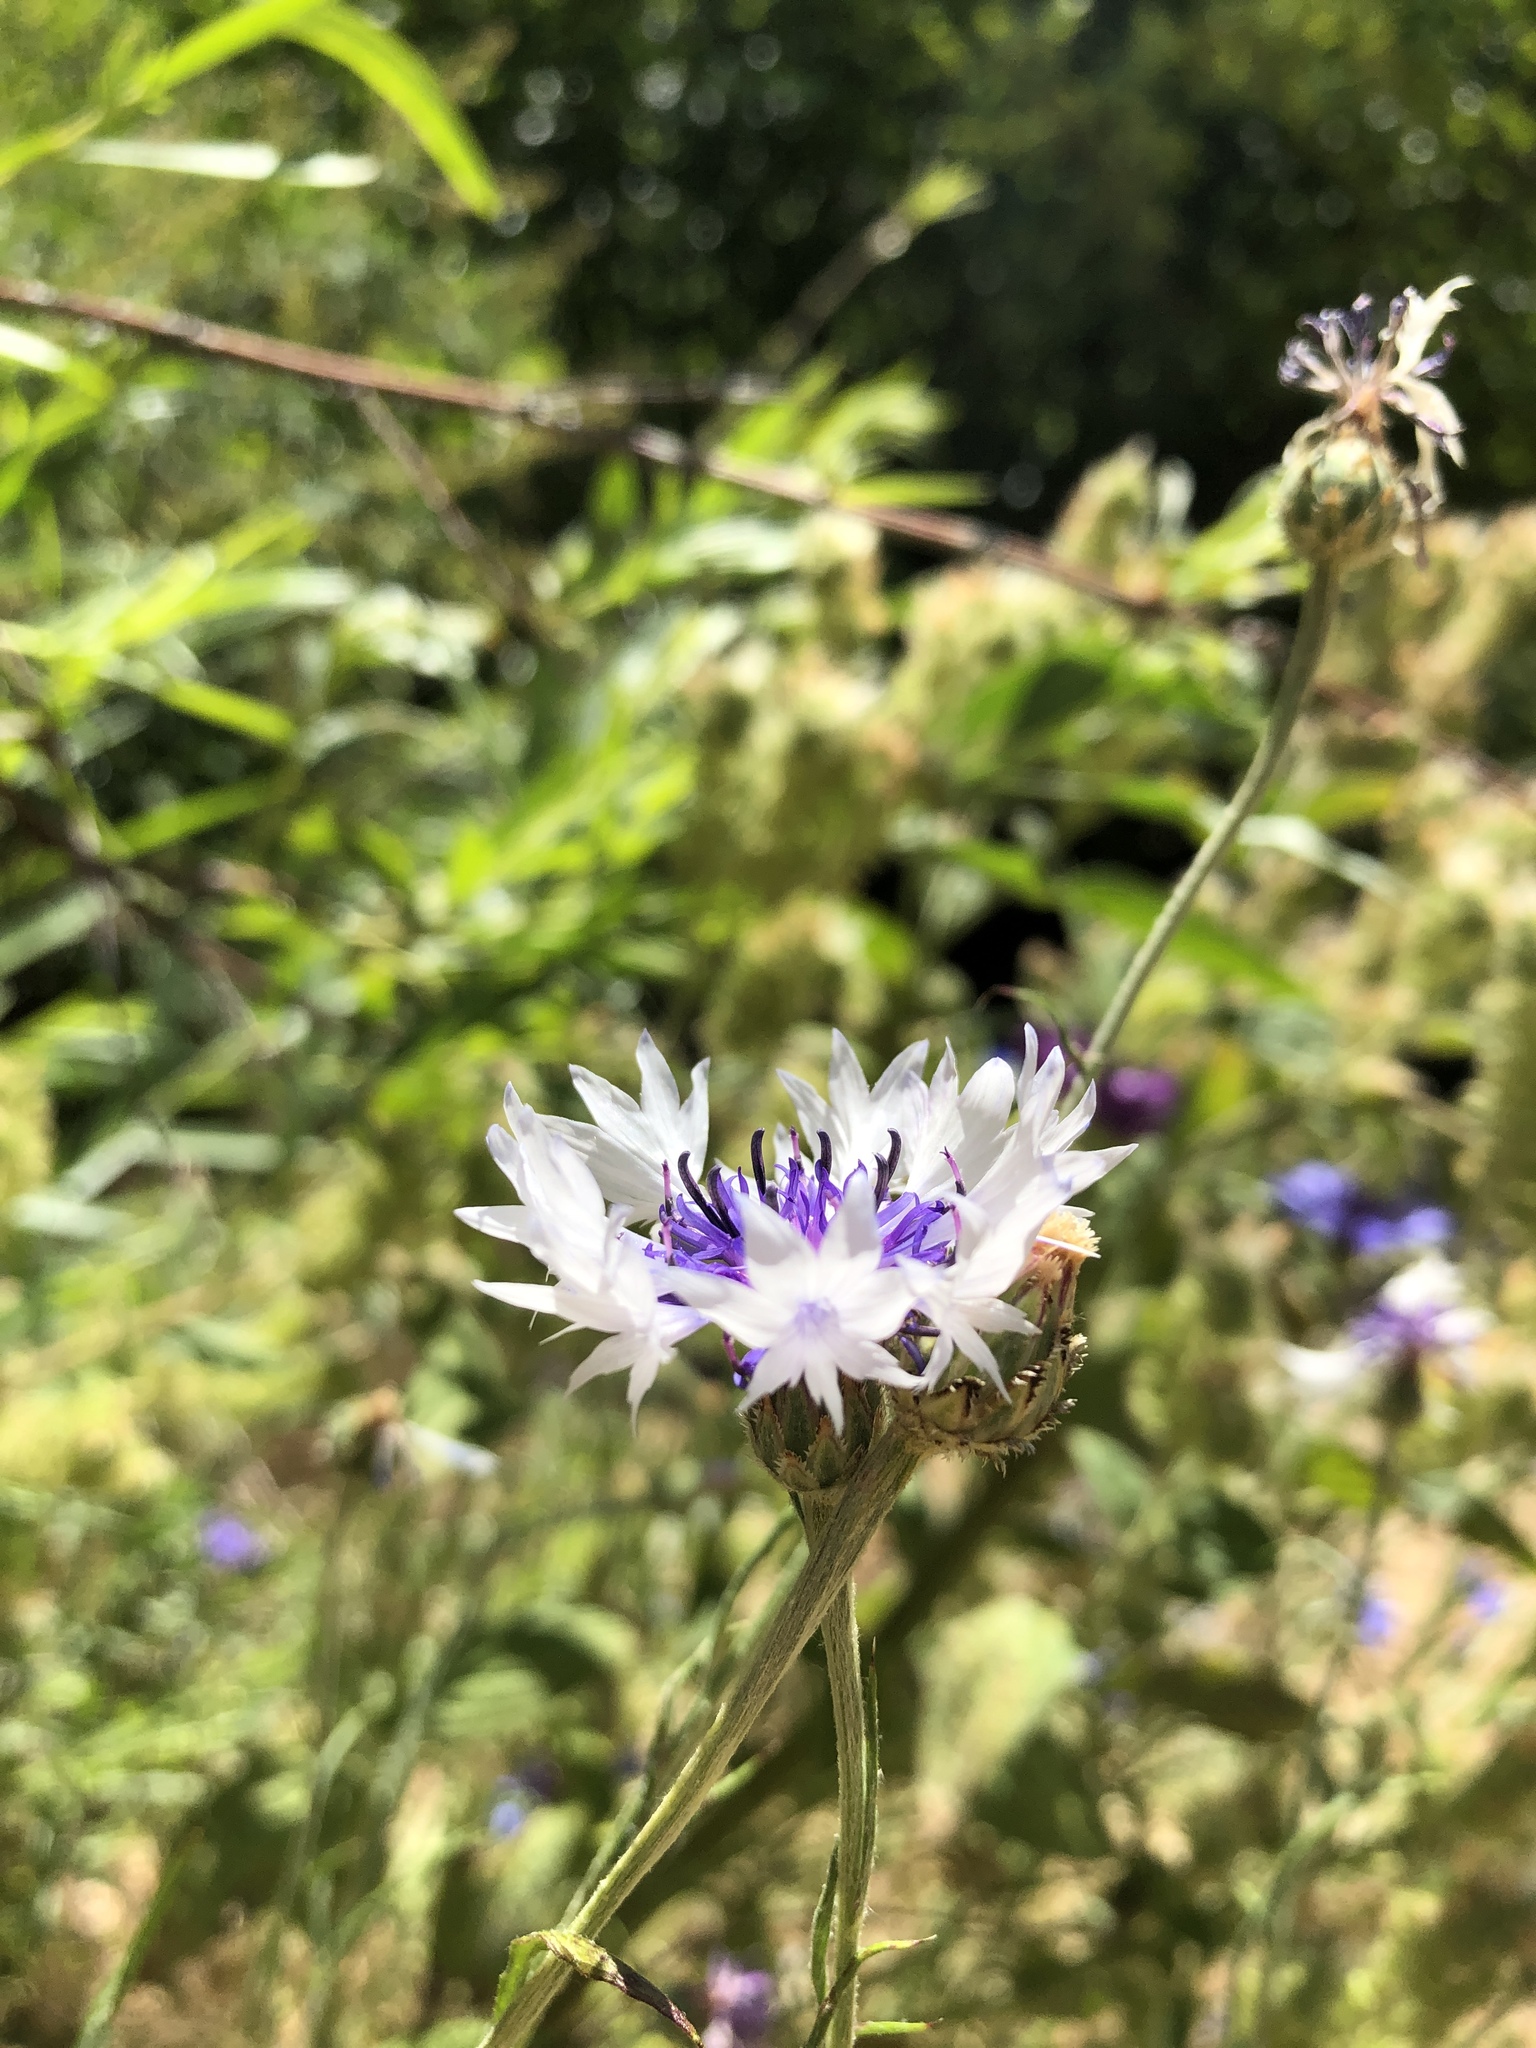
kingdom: Plantae
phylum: Tracheophyta
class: Magnoliopsida
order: Asterales
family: Asteraceae
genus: Centaurea
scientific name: Centaurea cyanus
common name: Cornflower
